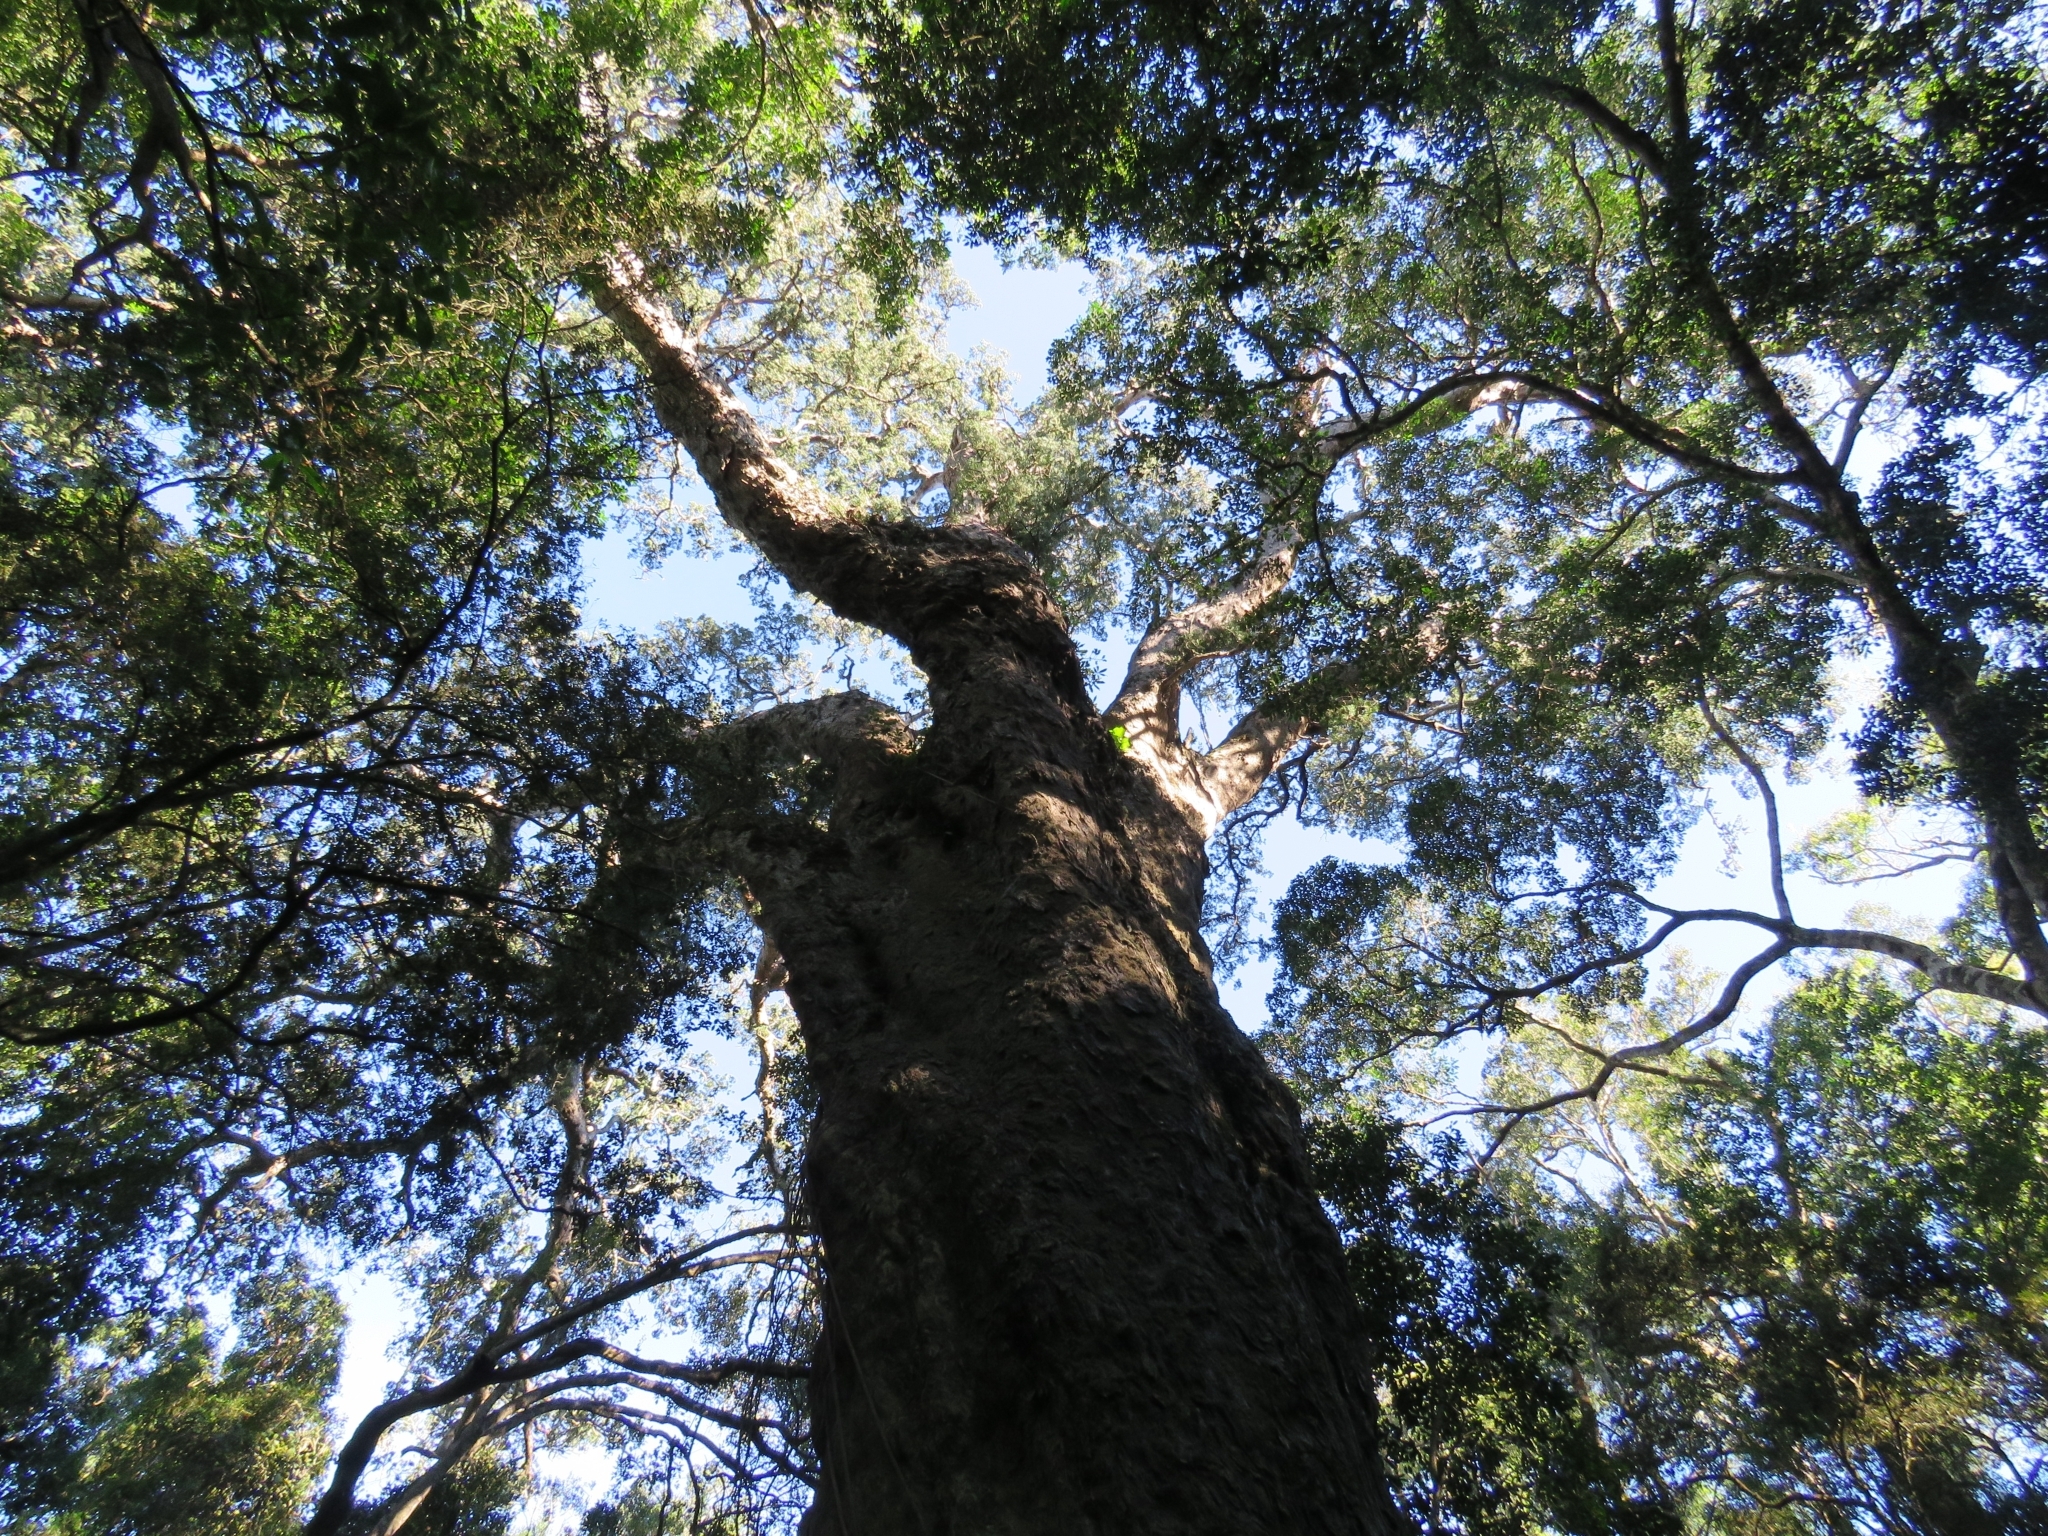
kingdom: Plantae
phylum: Tracheophyta
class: Pinopsida
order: Pinales
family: Podocarpaceae
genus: Afrocarpus
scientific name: Afrocarpus falcatus
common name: Bastard yellowwood
